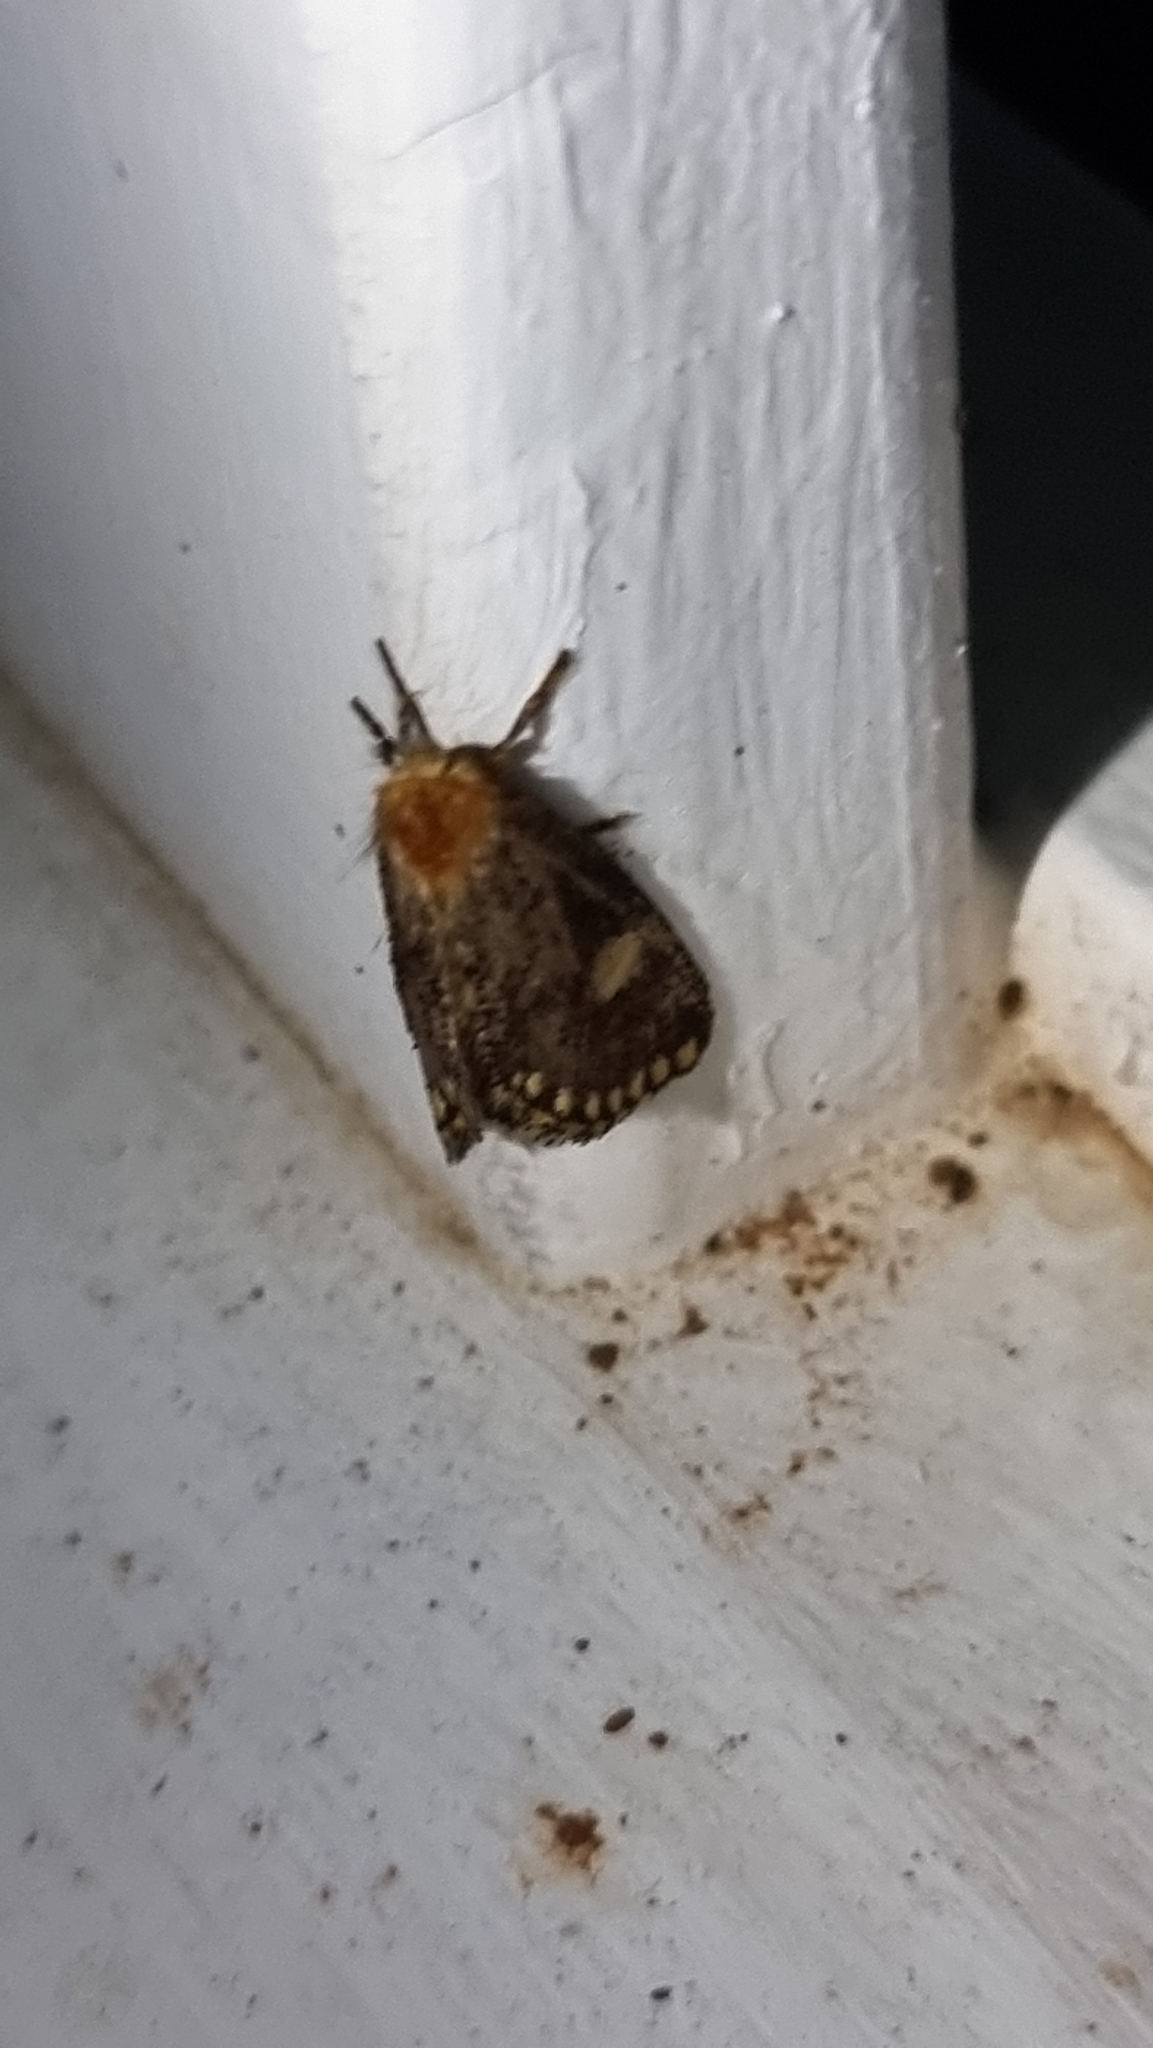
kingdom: Animalia
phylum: Arthropoda
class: Insecta
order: Lepidoptera
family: Notodontidae
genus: Epicoma
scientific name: Epicoma protrahens
